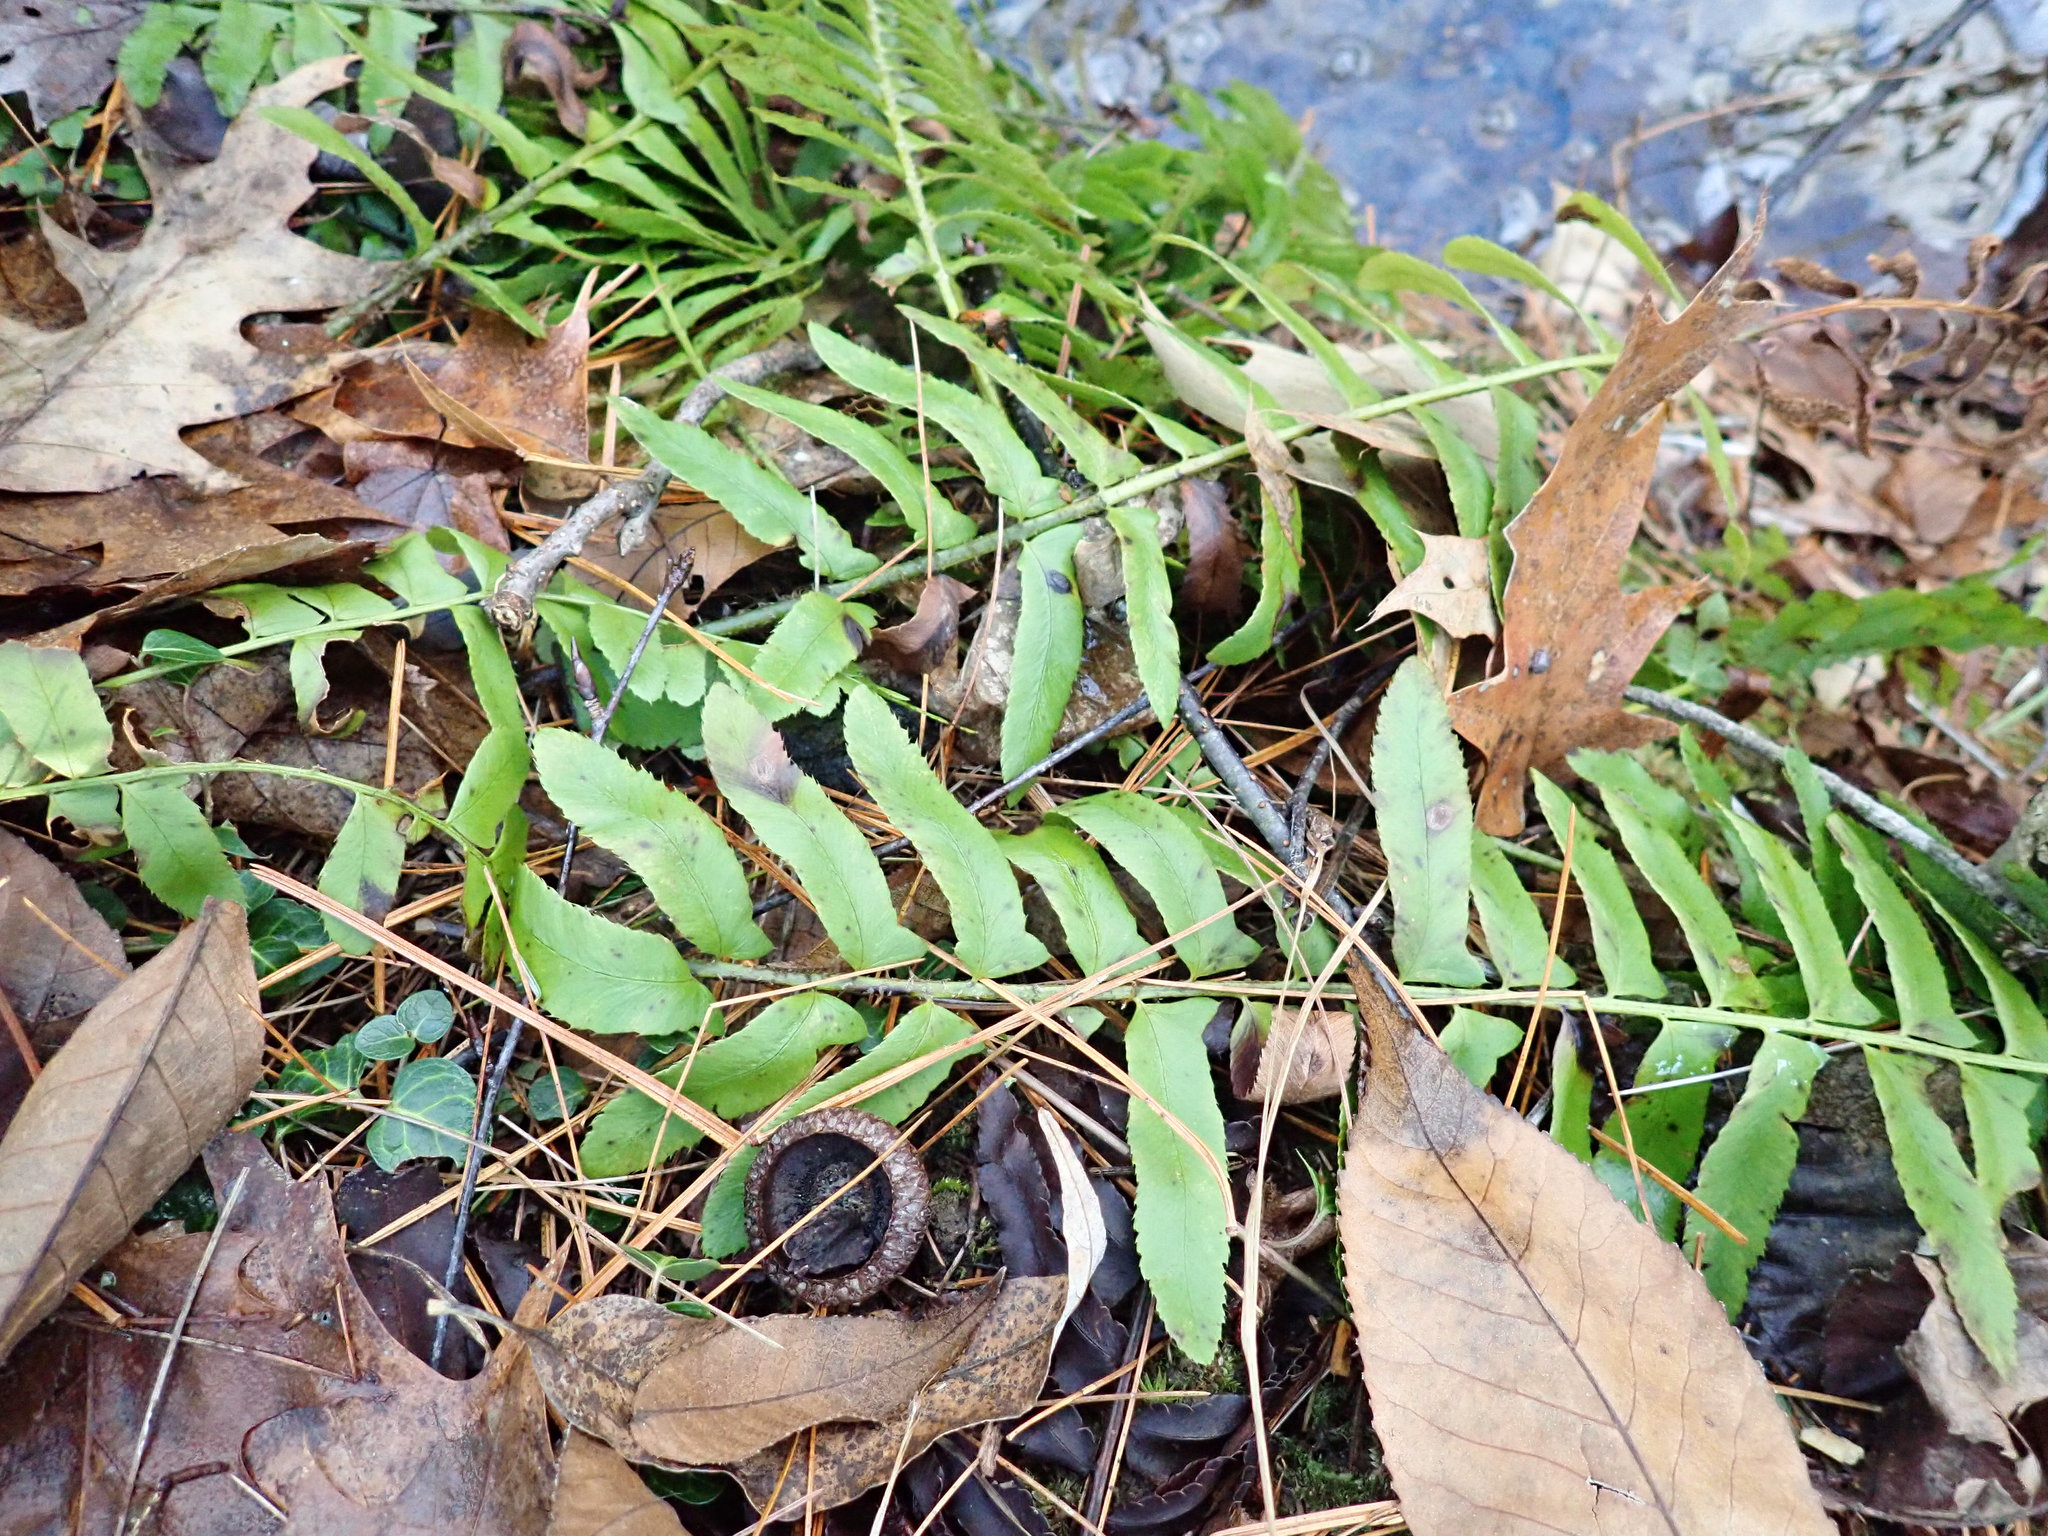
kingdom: Plantae
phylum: Tracheophyta
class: Polypodiopsida
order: Polypodiales
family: Dryopteridaceae
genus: Polystichum
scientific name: Polystichum acrostichoides
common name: Christmas fern
